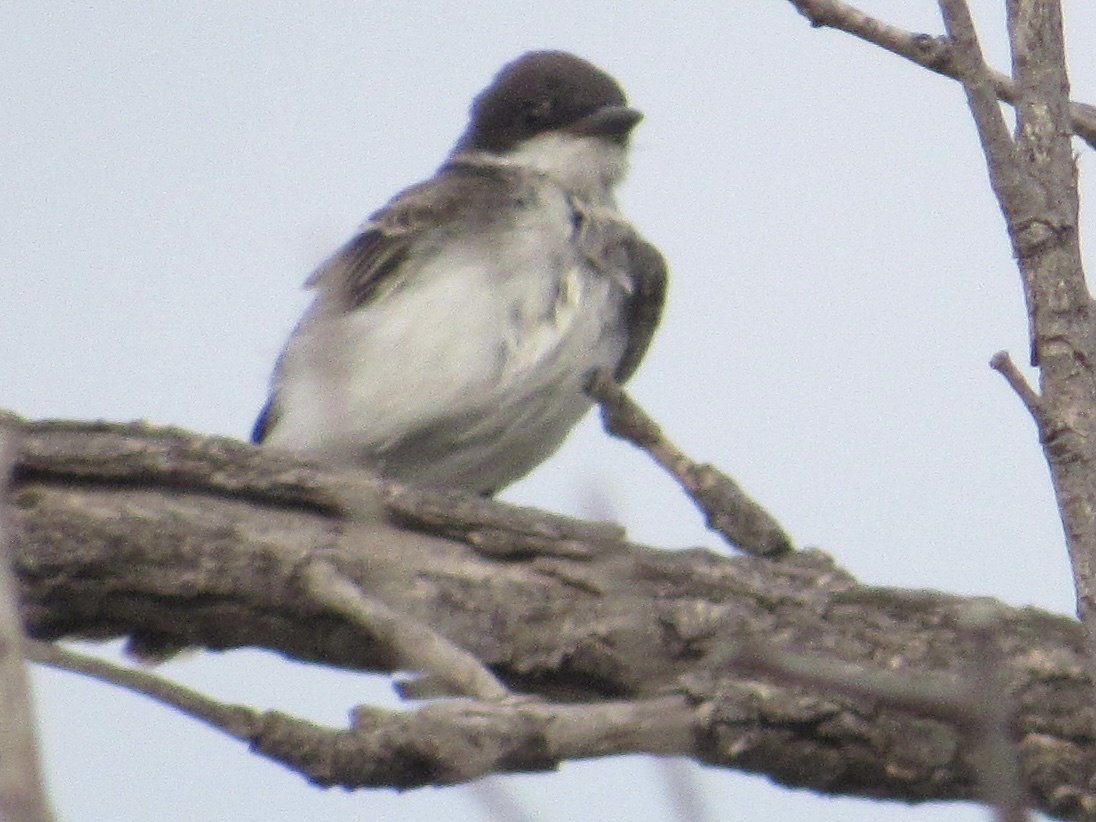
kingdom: Animalia
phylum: Chordata
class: Aves
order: Passeriformes
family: Tyrannidae
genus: Tyrannus
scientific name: Tyrannus tyrannus
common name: Eastern kingbird
